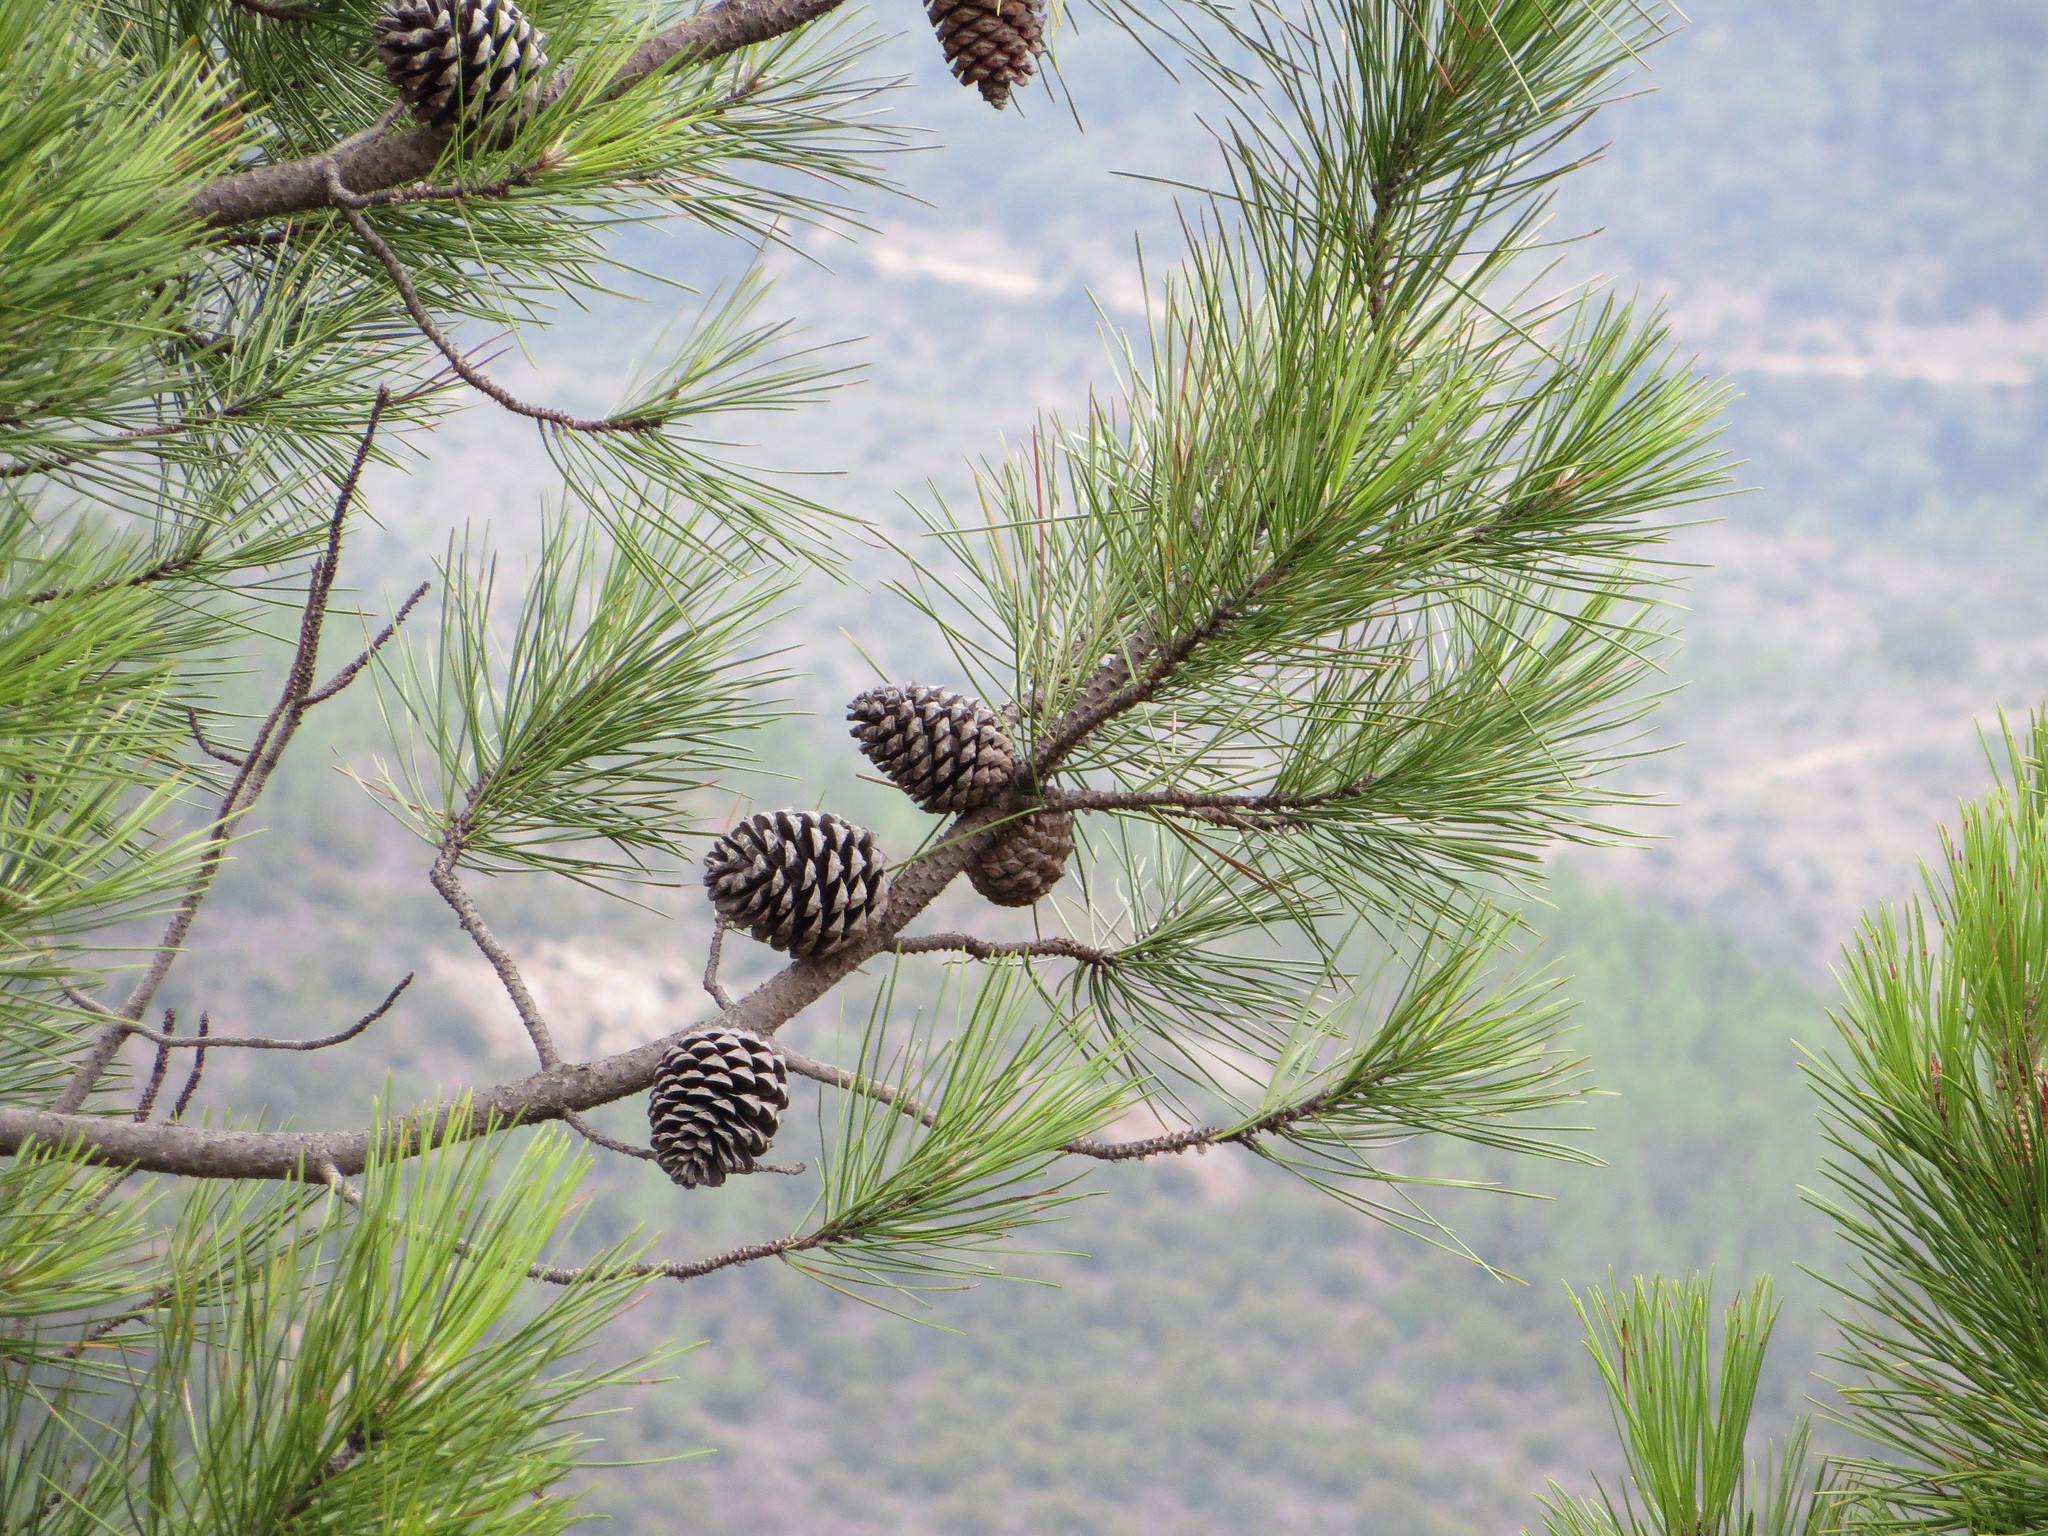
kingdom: Plantae
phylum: Tracheophyta
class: Pinopsida
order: Pinales
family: Pinaceae
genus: Pinus
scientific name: Pinus pinaster
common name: Maritime pine
